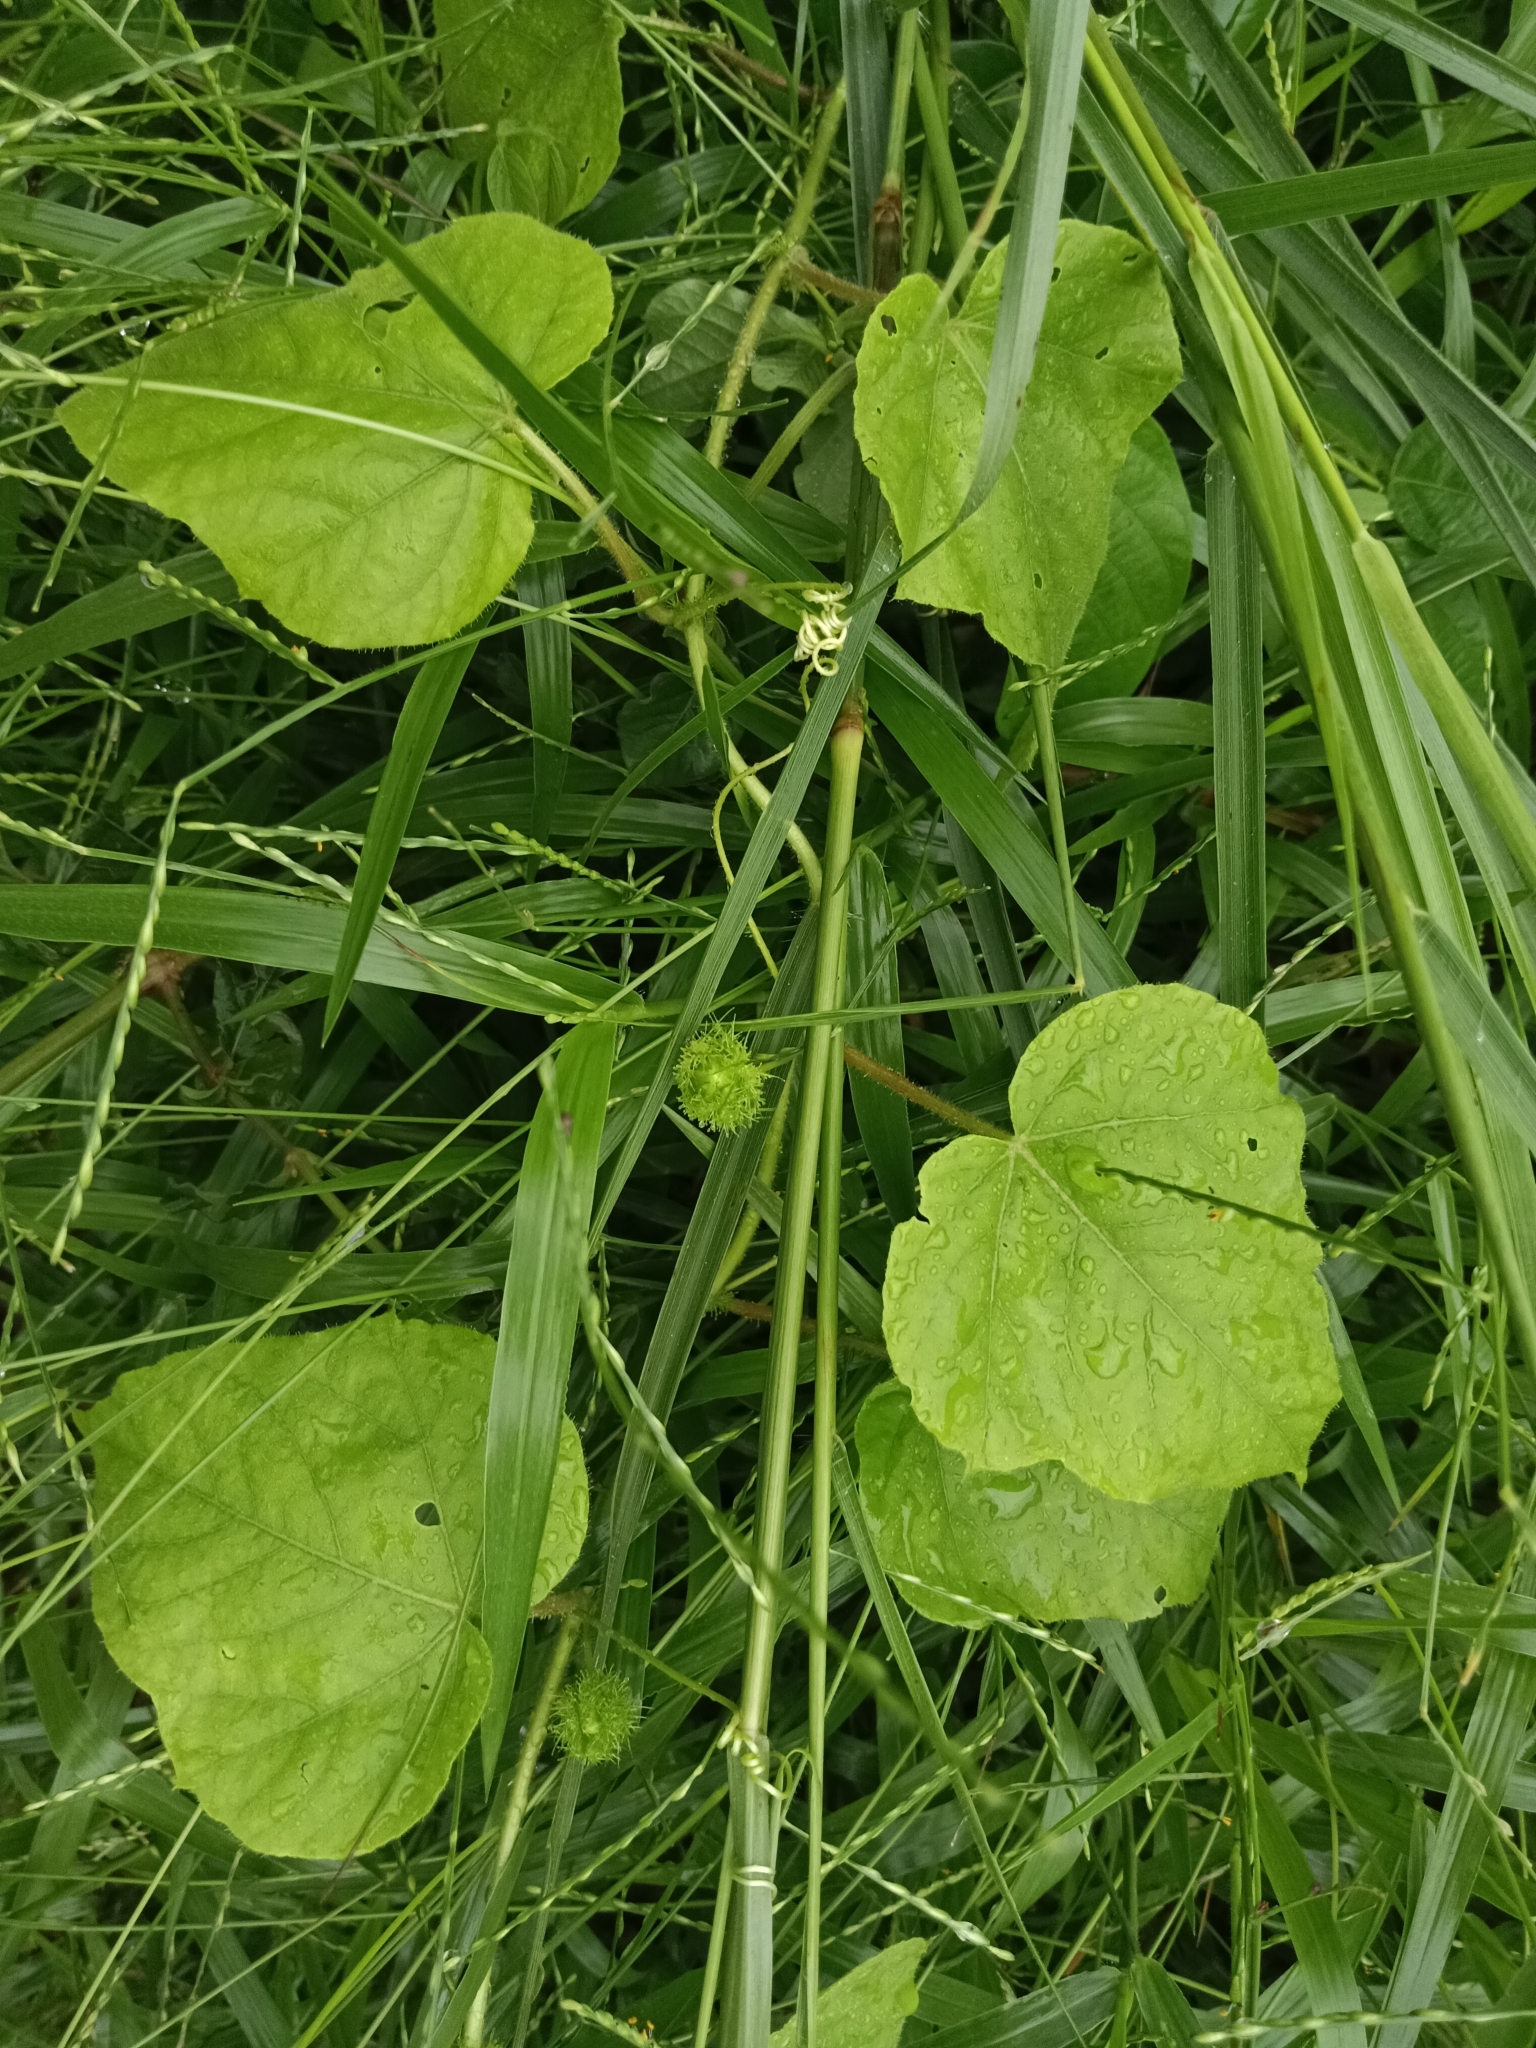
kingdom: Plantae
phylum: Tracheophyta
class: Magnoliopsida
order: Malpighiales
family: Passifloraceae
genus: Passiflora
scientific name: Passiflora vesicaria
